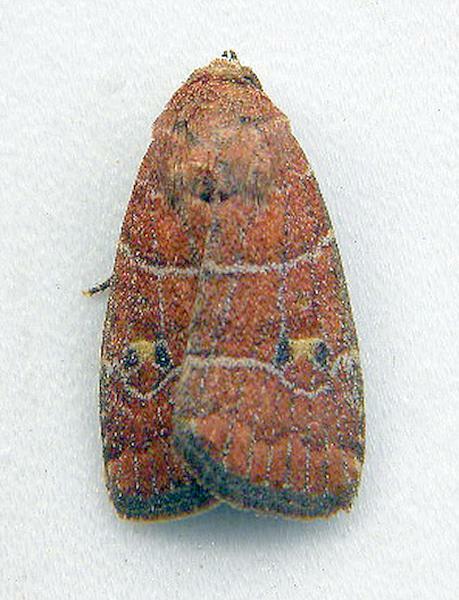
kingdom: Animalia
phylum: Arthropoda
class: Insecta
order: Lepidoptera
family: Noctuidae
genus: Elaphria
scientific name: Elaphria grata
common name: Grateful midget moth
